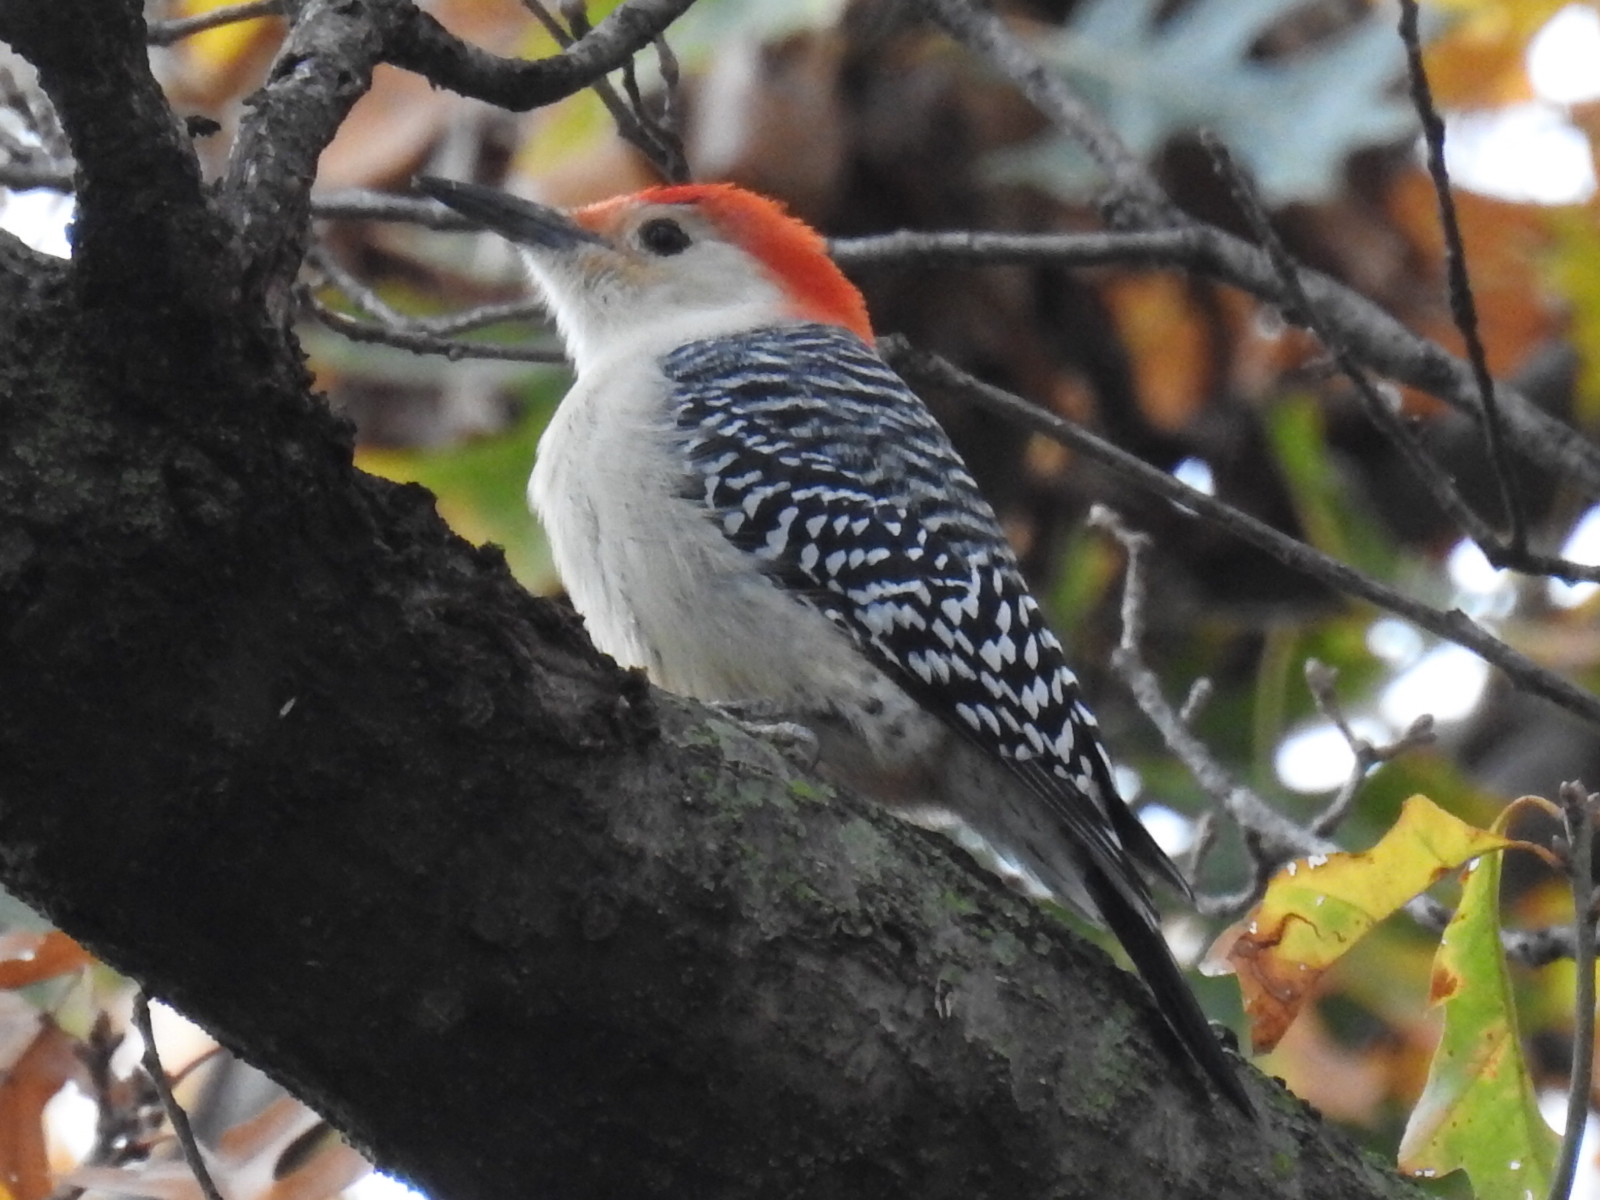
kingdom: Animalia
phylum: Chordata
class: Aves
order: Piciformes
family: Picidae
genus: Melanerpes
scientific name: Melanerpes carolinus
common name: Red-bellied woodpecker
